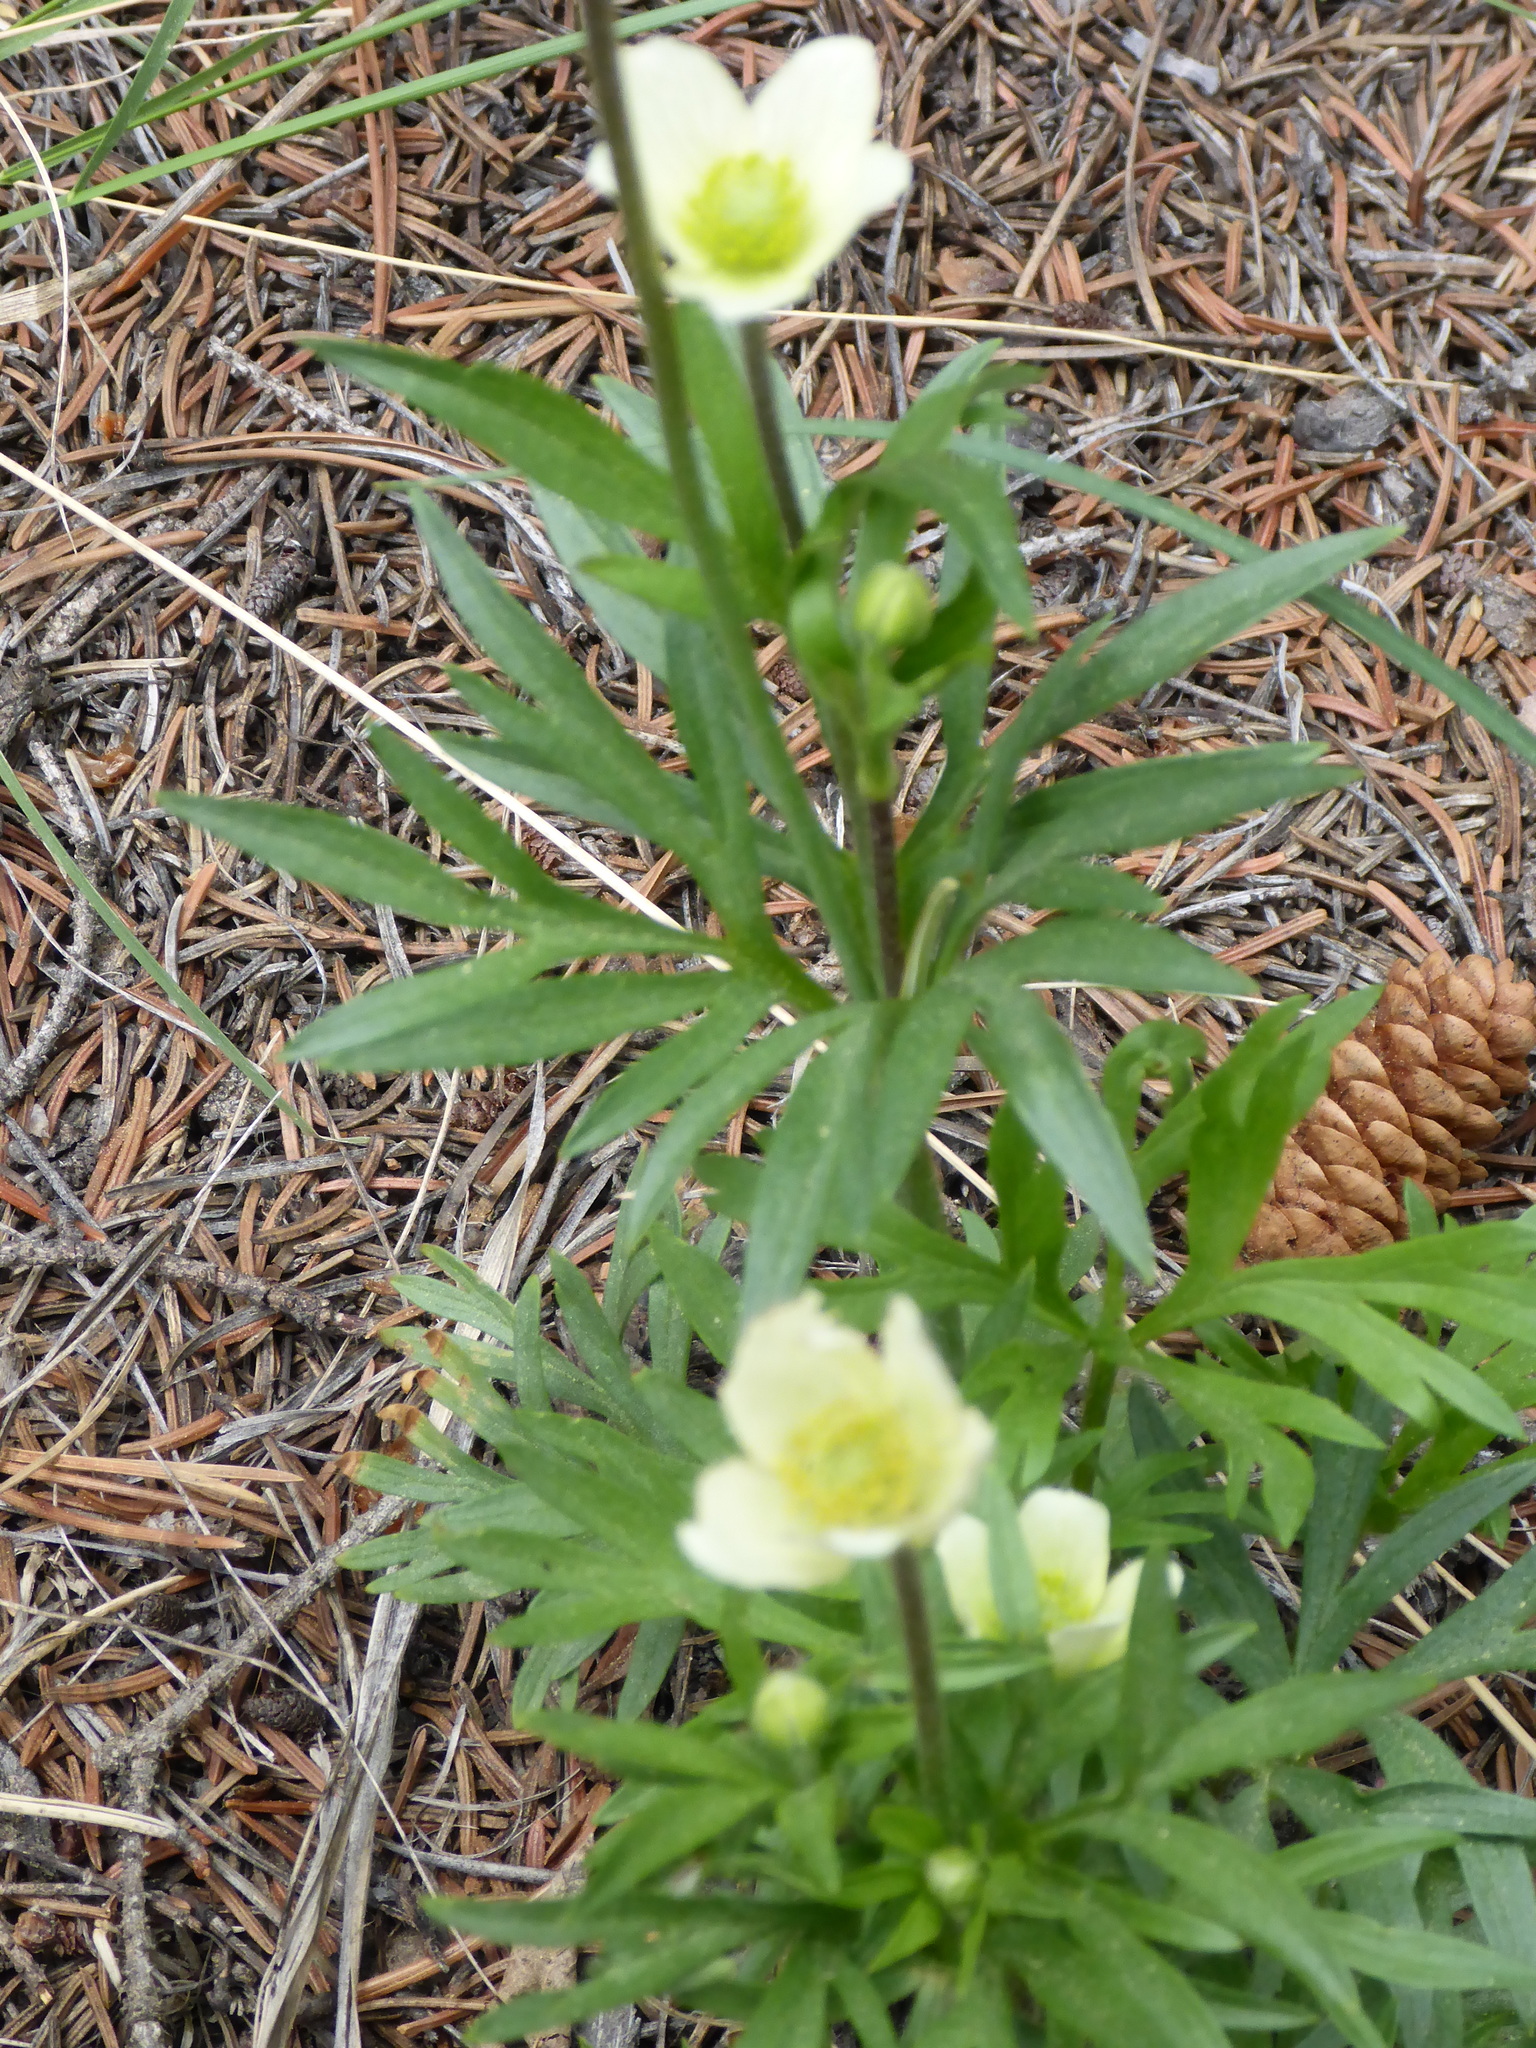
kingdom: Plantae
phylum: Tracheophyta
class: Magnoliopsida
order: Ranunculales
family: Ranunculaceae
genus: Anemone
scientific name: Anemone multifida
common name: Bird's-foot anemone
